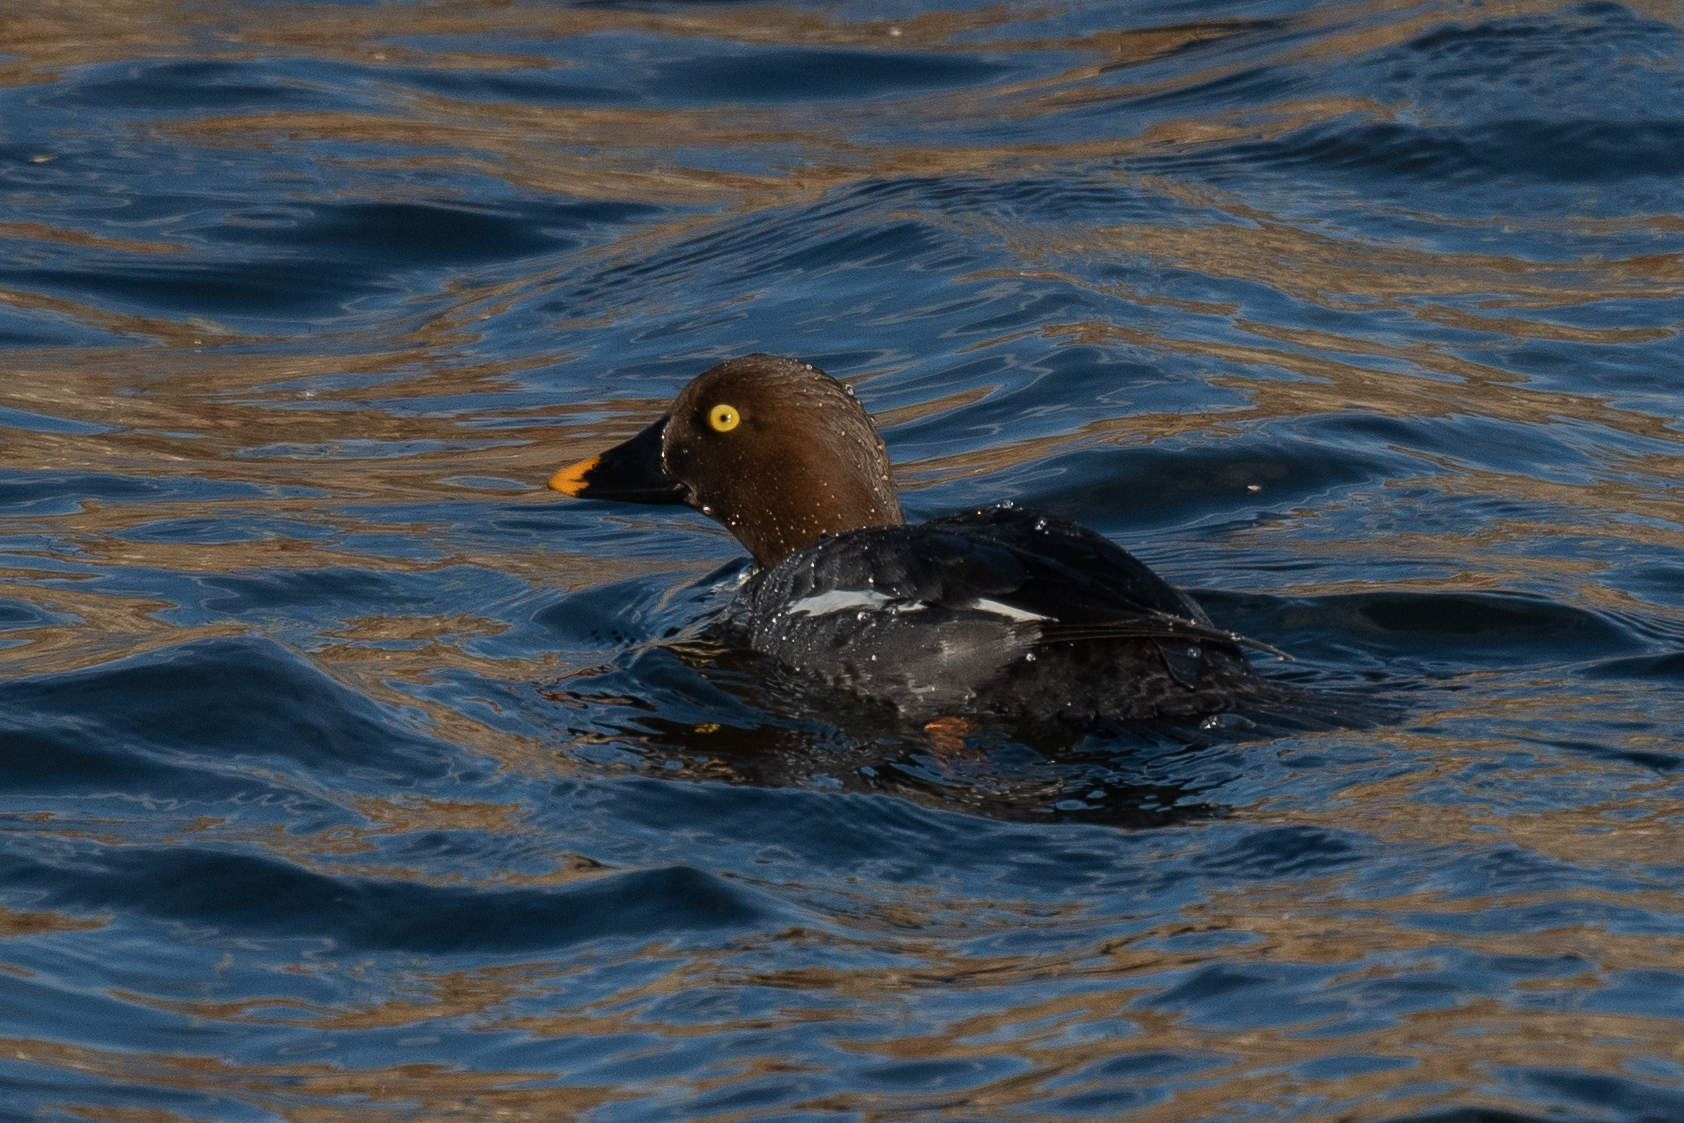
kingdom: Animalia
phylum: Chordata
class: Aves
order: Anseriformes
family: Anatidae
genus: Bucephala
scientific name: Bucephala clangula
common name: Common goldeneye
